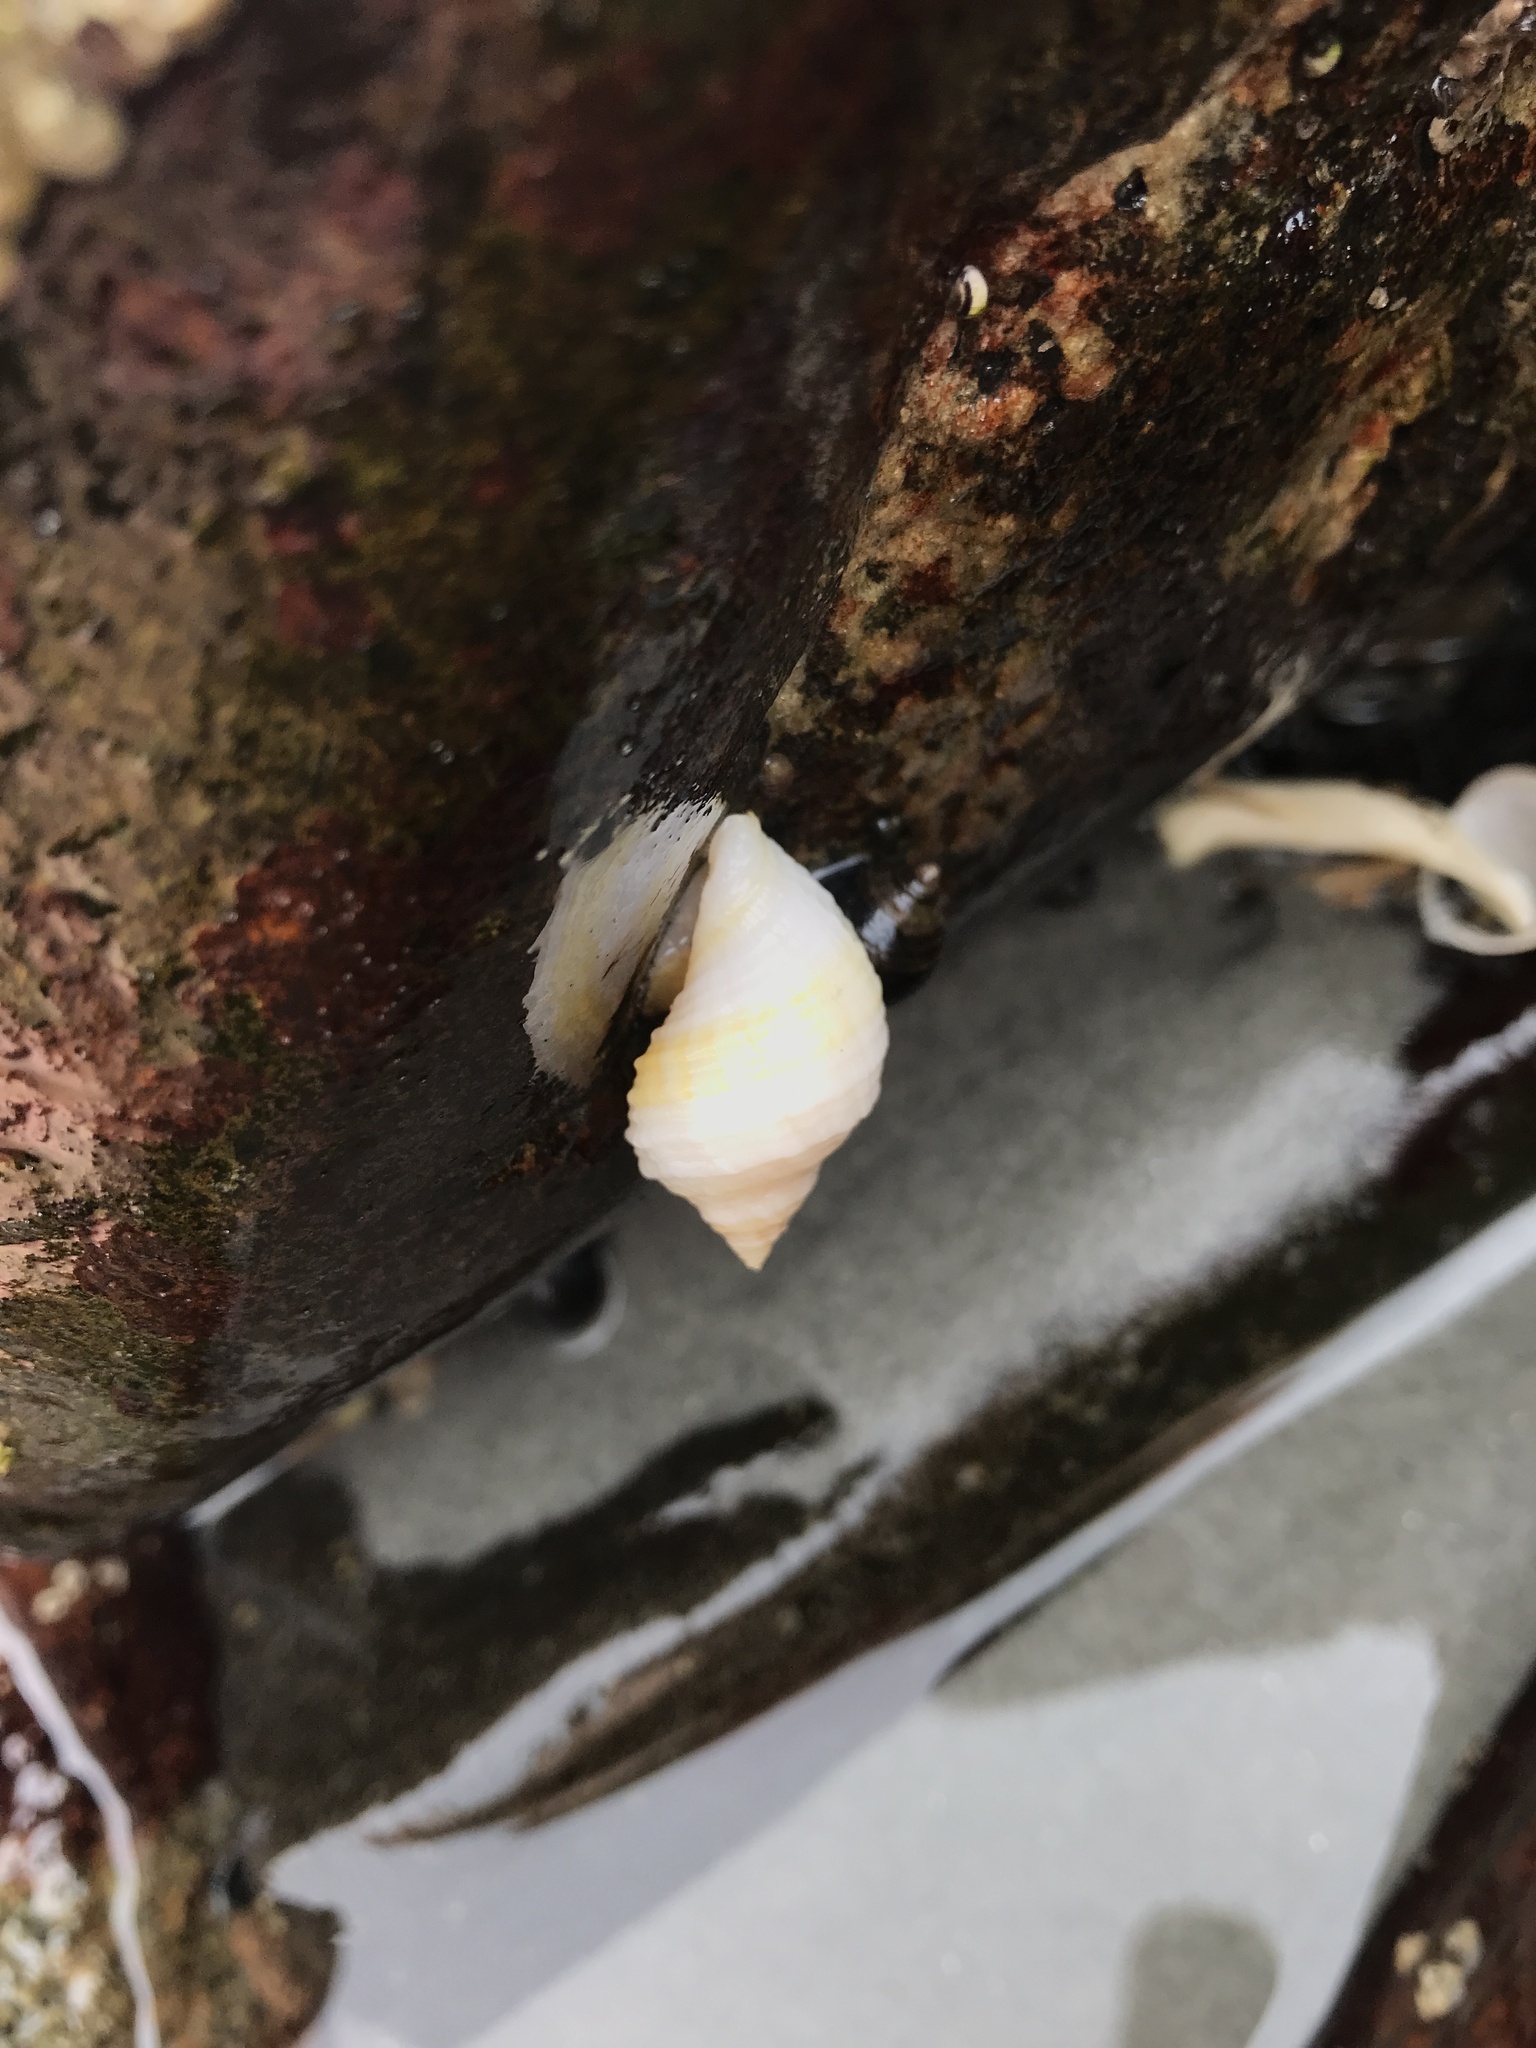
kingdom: Animalia
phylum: Mollusca
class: Gastropoda
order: Neogastropoda
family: Muricidae
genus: Nucella
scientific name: Nucella lapillus
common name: Dog whelk
